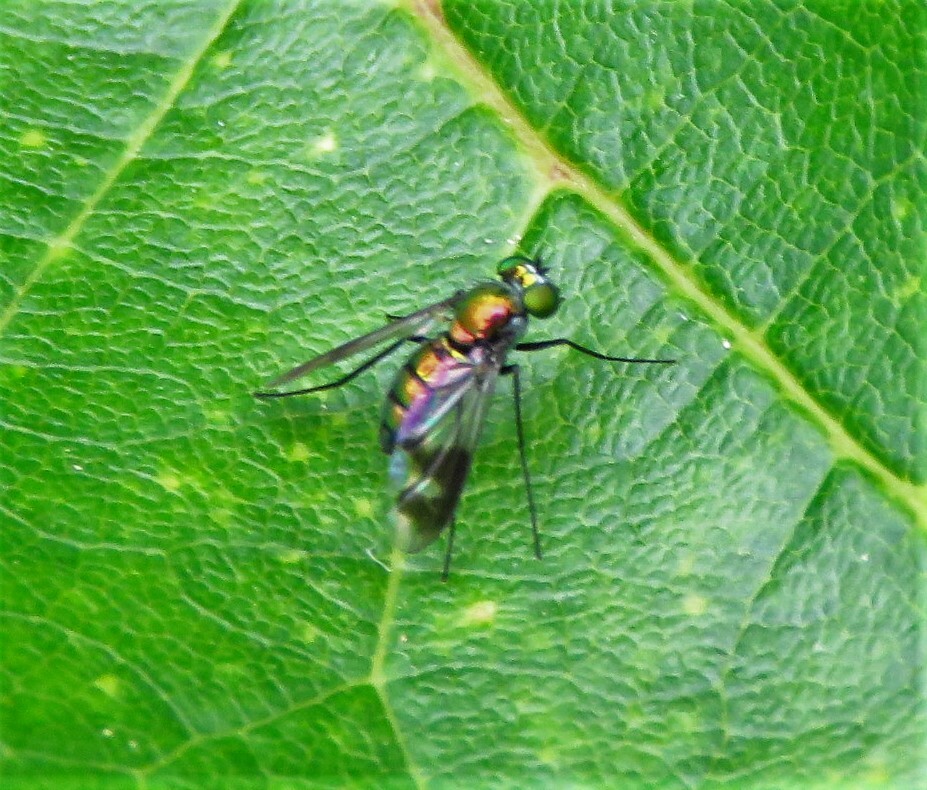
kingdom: Animalia
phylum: Arthropoda
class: Insecta
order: Diptera
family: Dolichopodidae
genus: Condylostylus
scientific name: Condylostylus patibulatus
